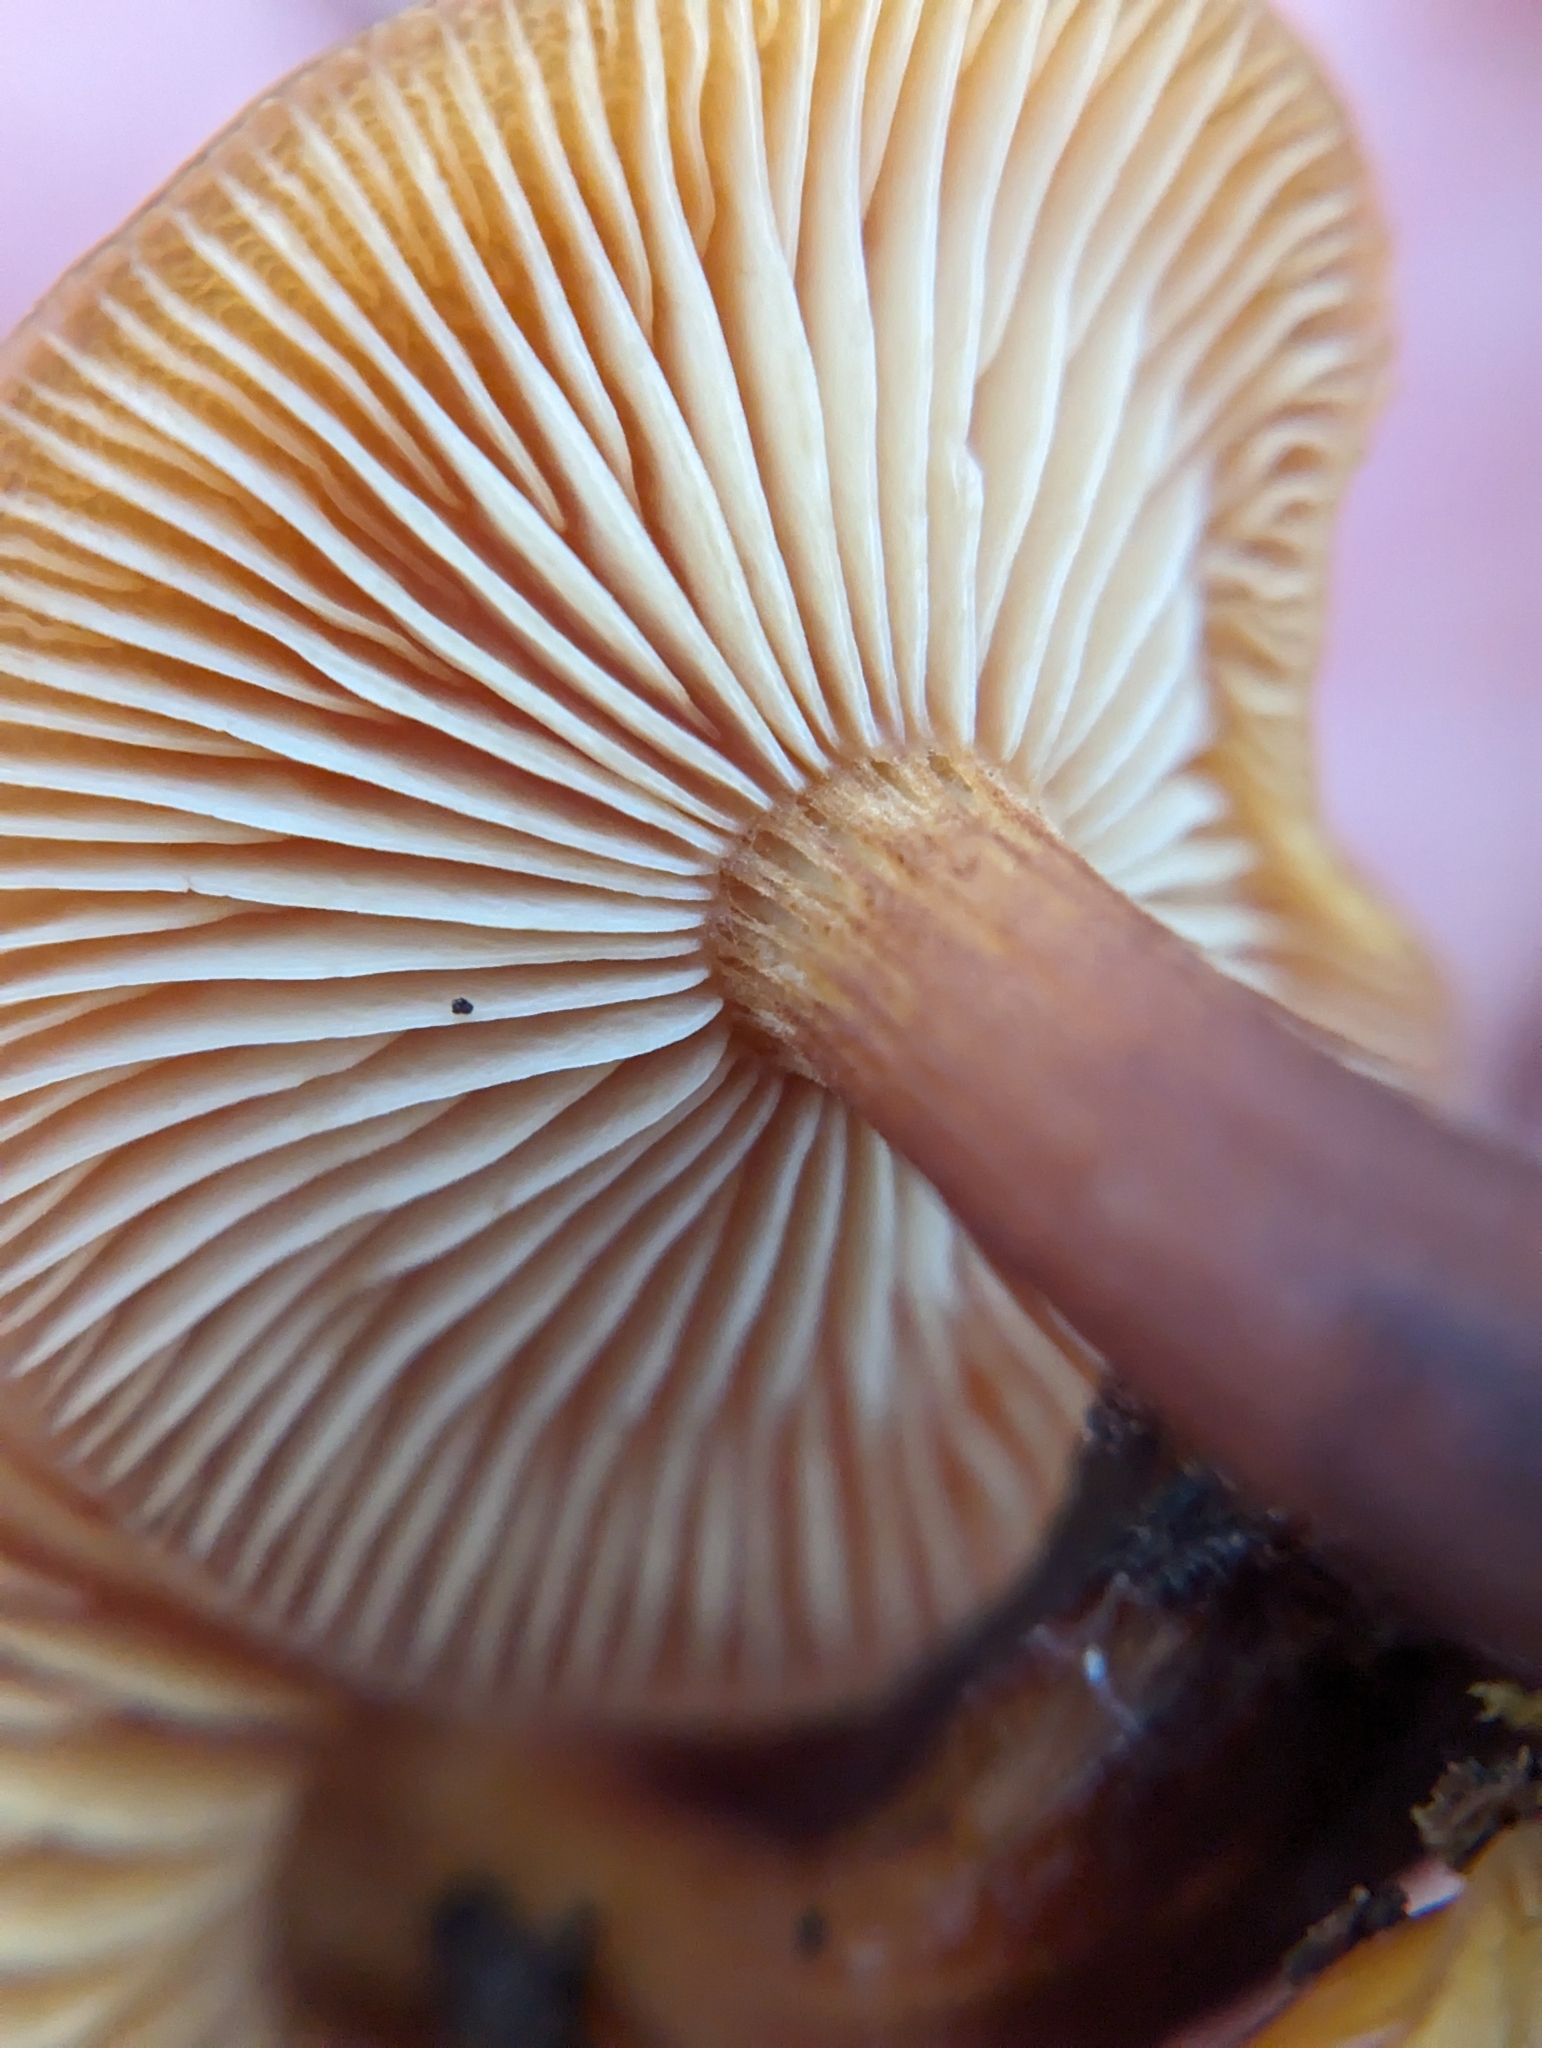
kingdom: Fungi
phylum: Basidiomycota
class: Agaricomycetes
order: Agaricales
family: Physalacriaceae
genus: Flammulina
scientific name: Flammulina velutipes
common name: Velvet shank
